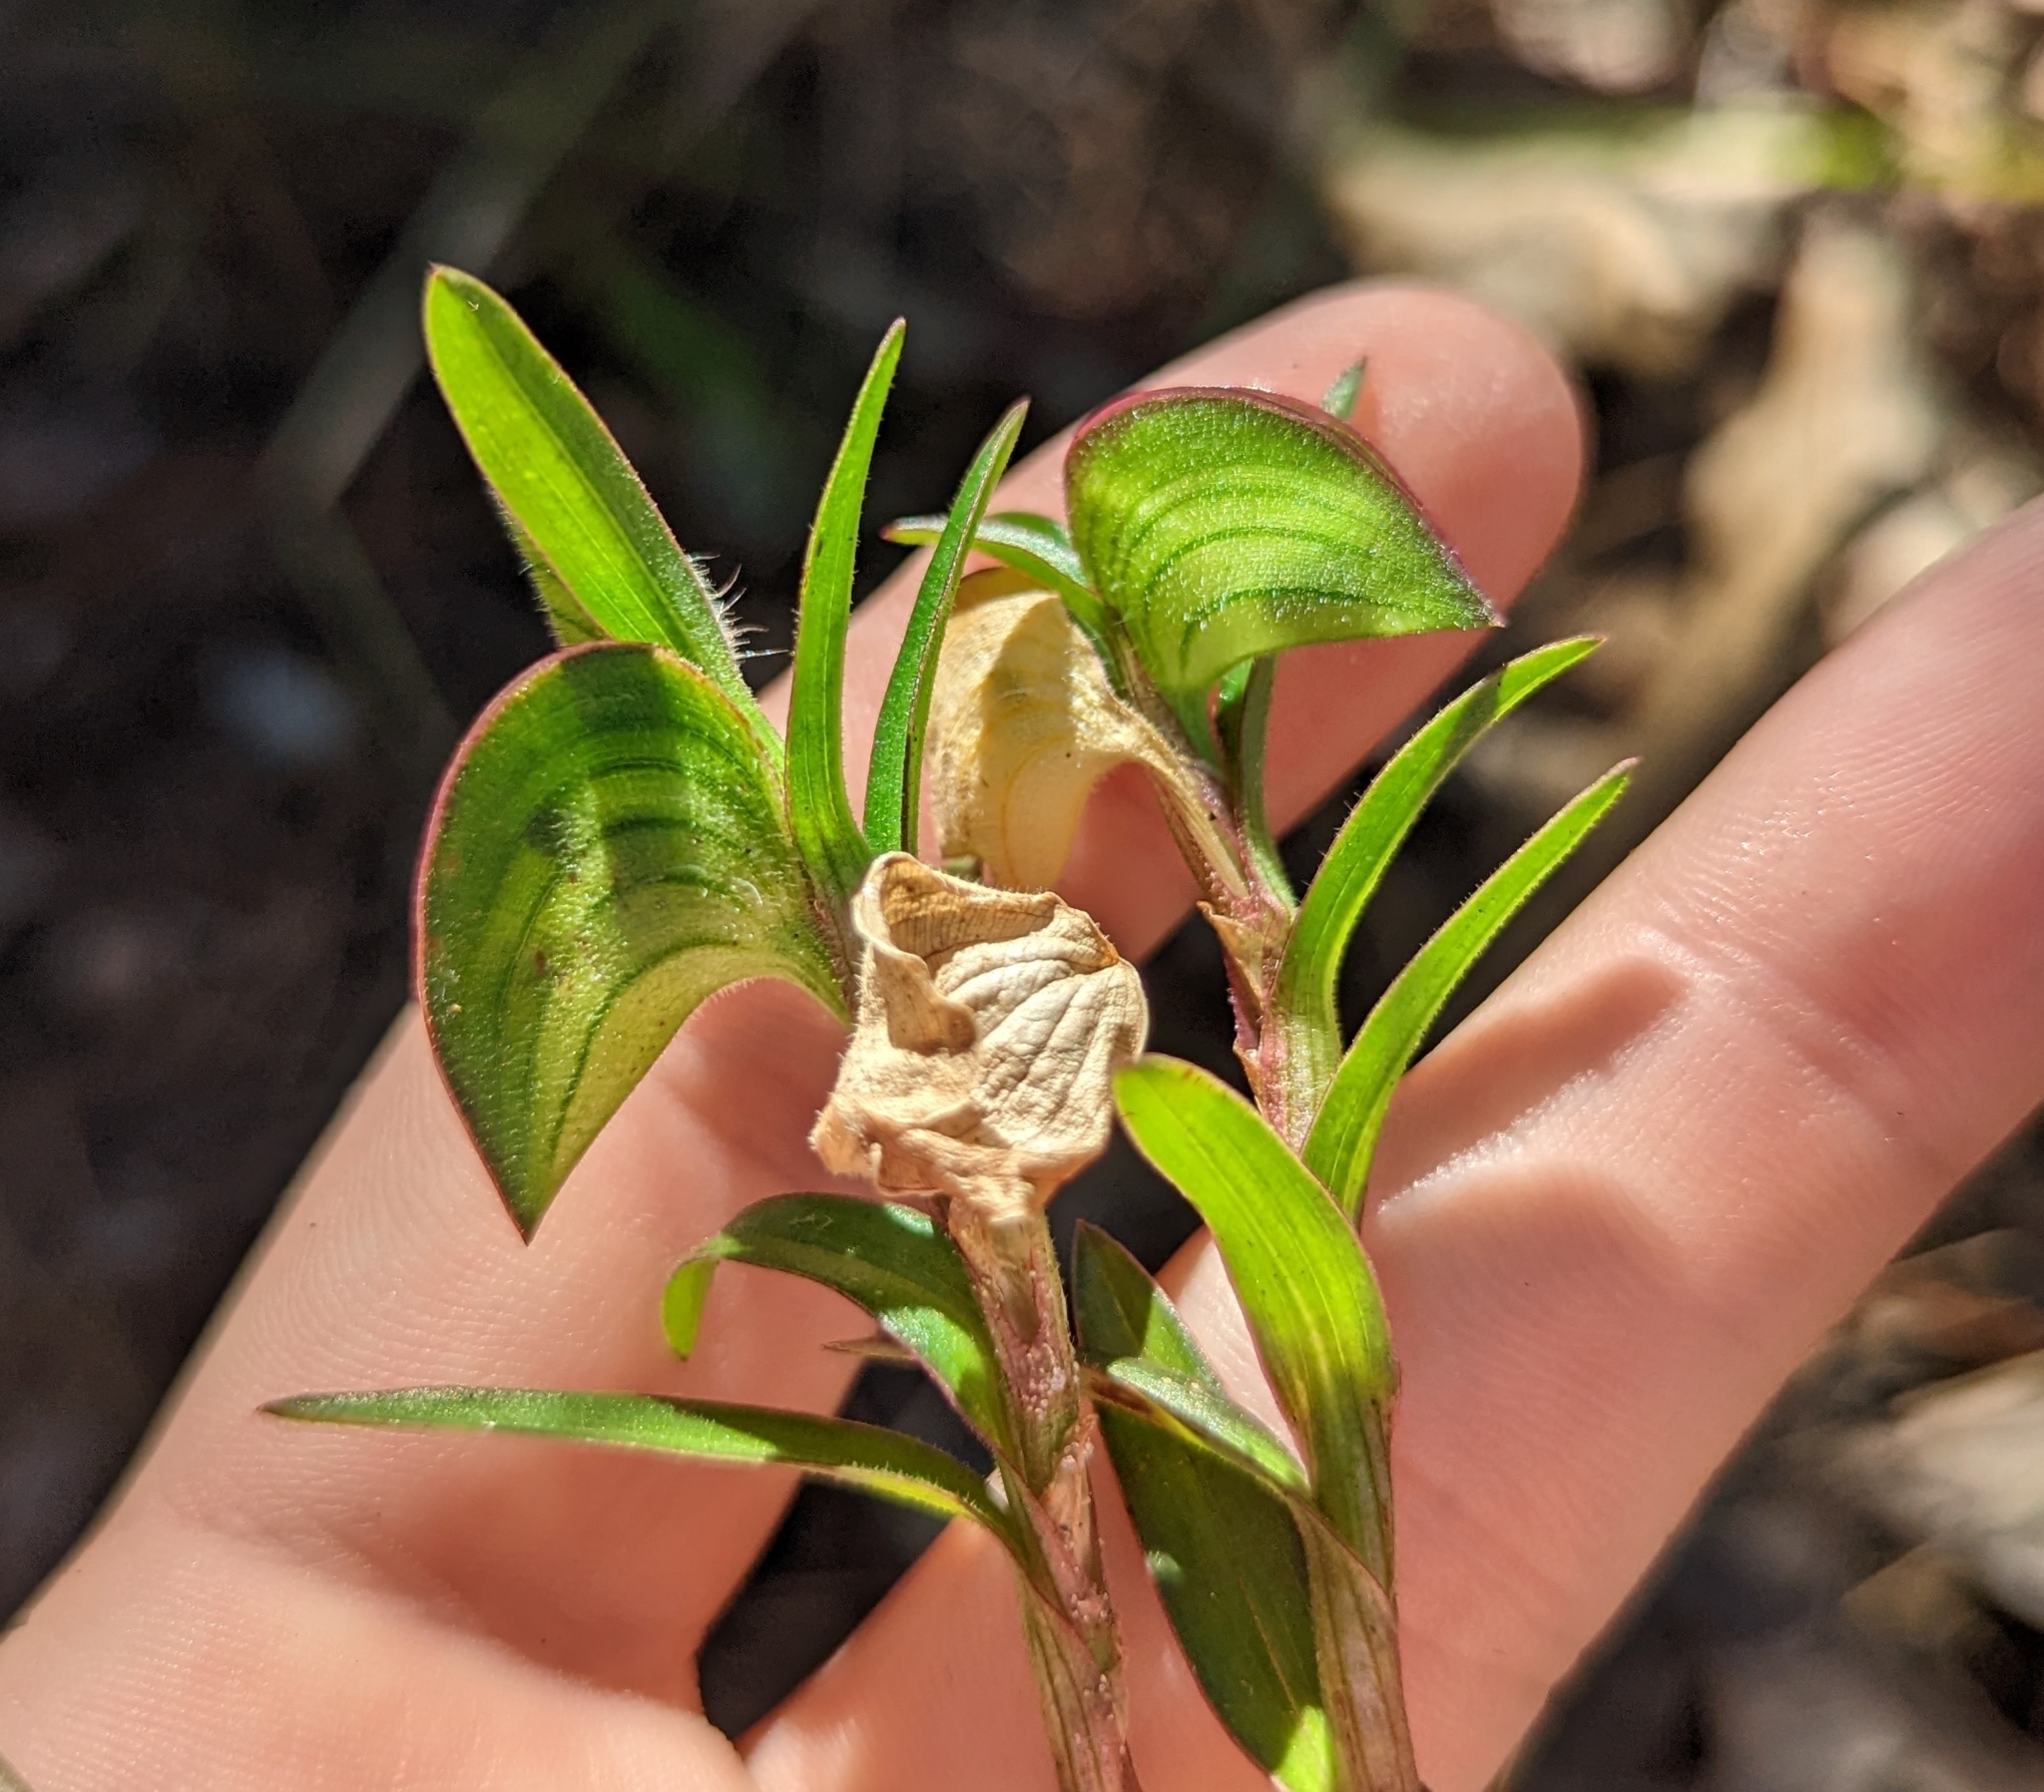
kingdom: Plantae
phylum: Tracheophyta
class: Liliopsida
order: Commelinales
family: Commelinaceae
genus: Commelina
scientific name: Commelina erecta
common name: Blousel blommetjie
